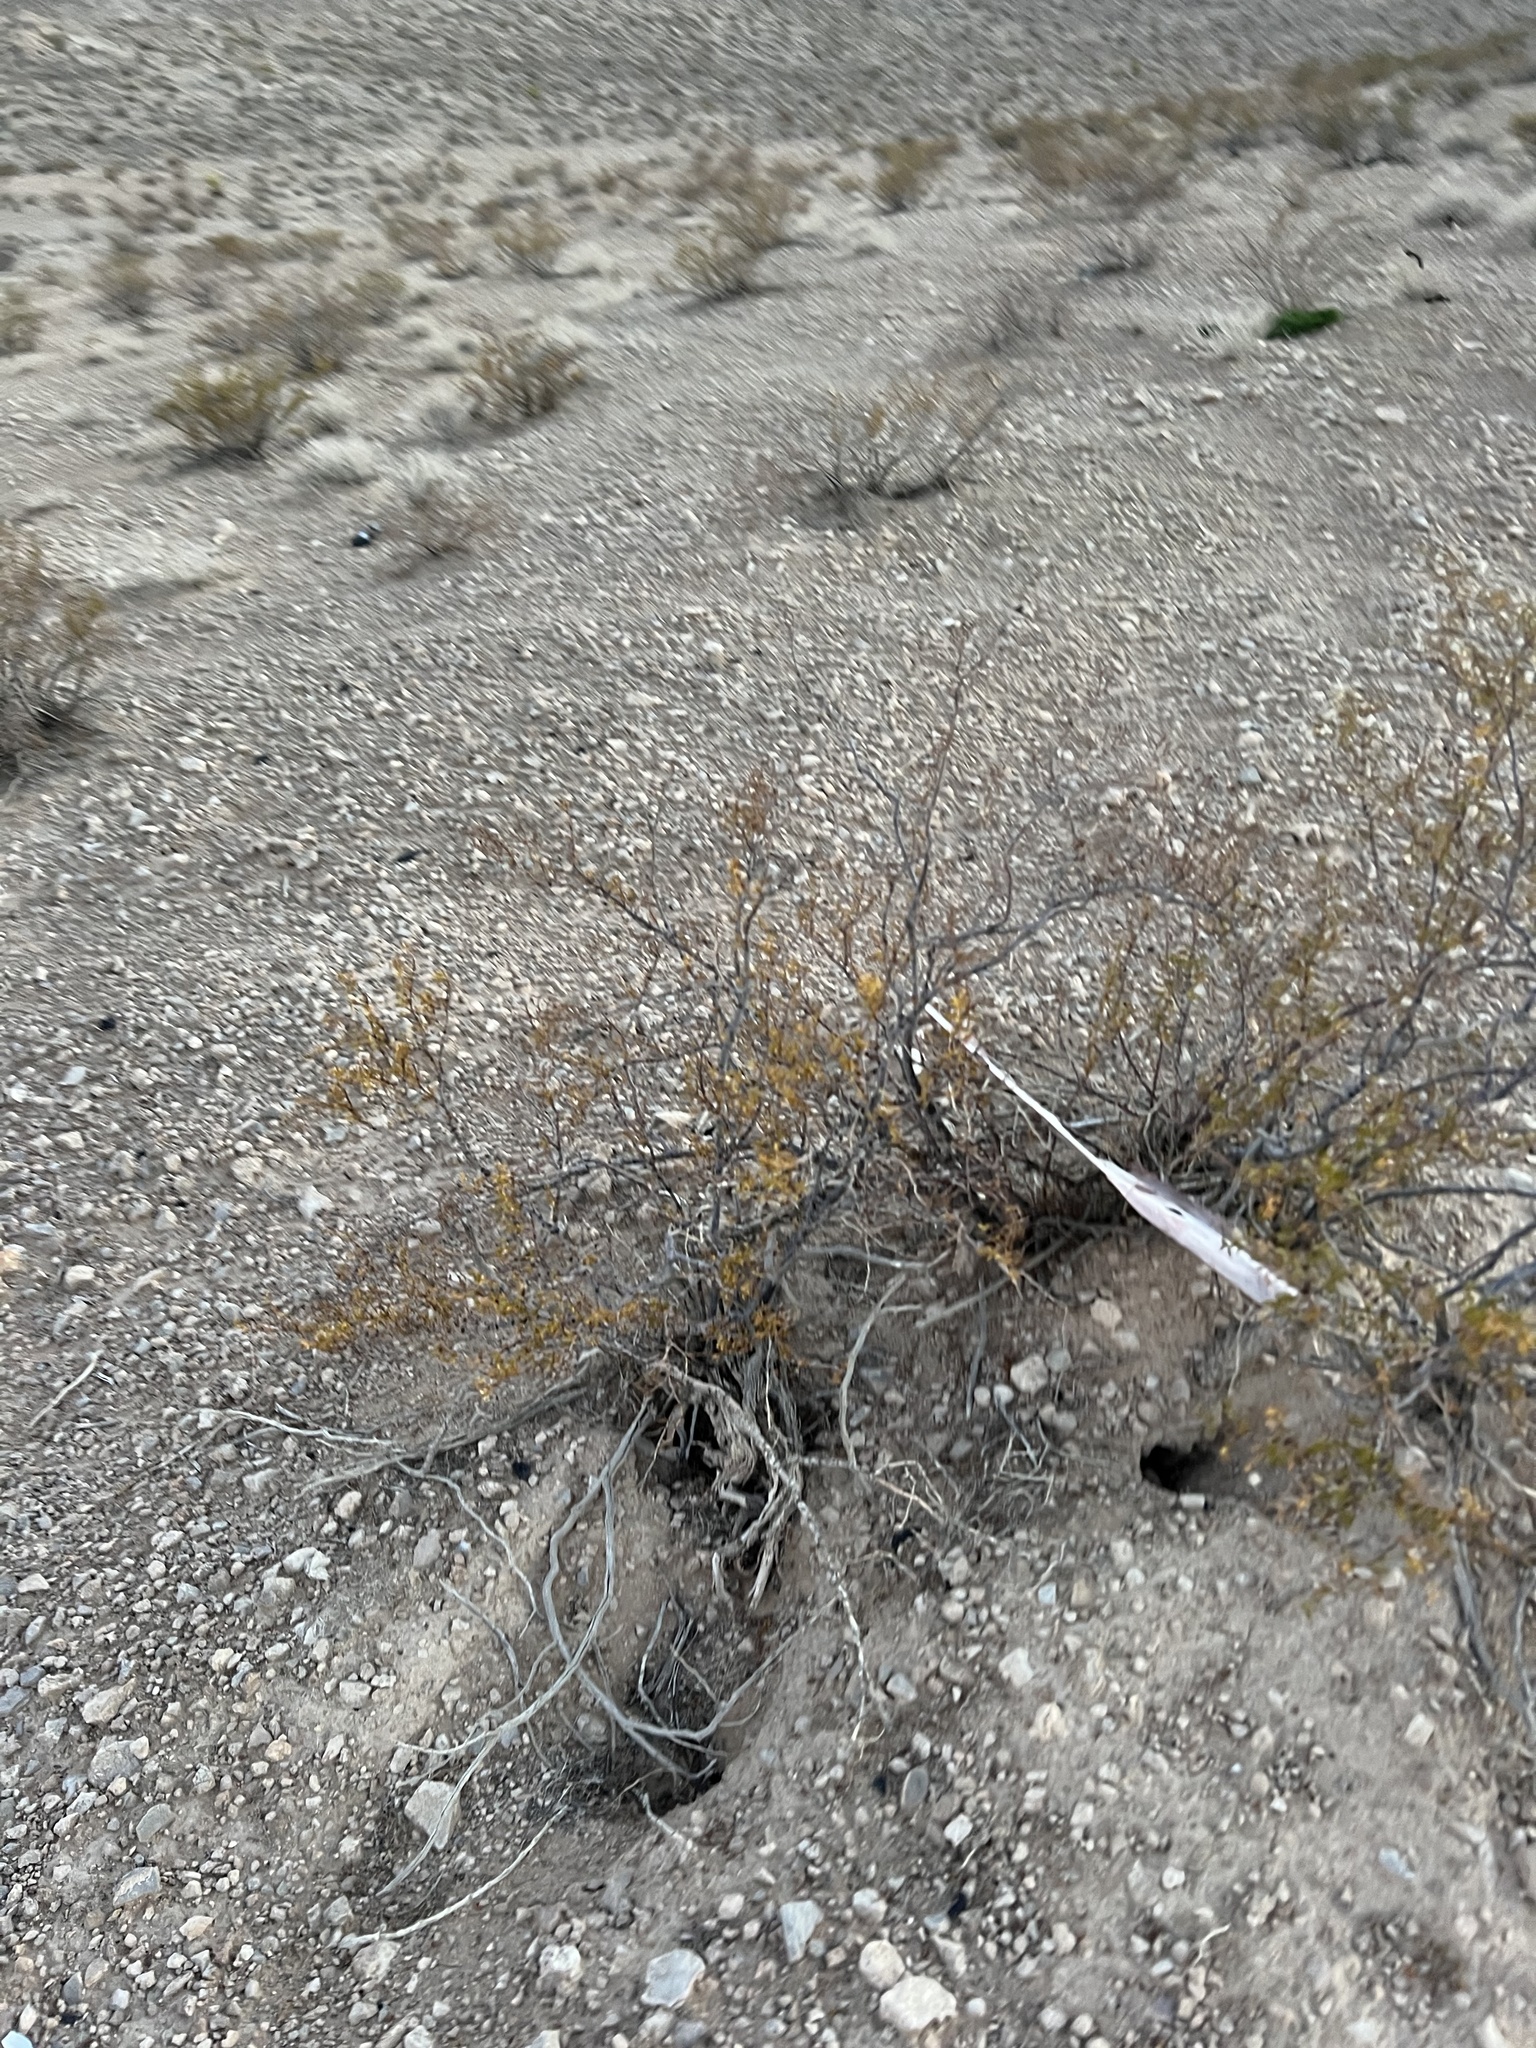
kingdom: Plantae
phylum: Tracheophyta
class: Magnoliopsida
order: Zygophyllales
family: Zygophyllaceae
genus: Larrea
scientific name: Larrea tridentata
